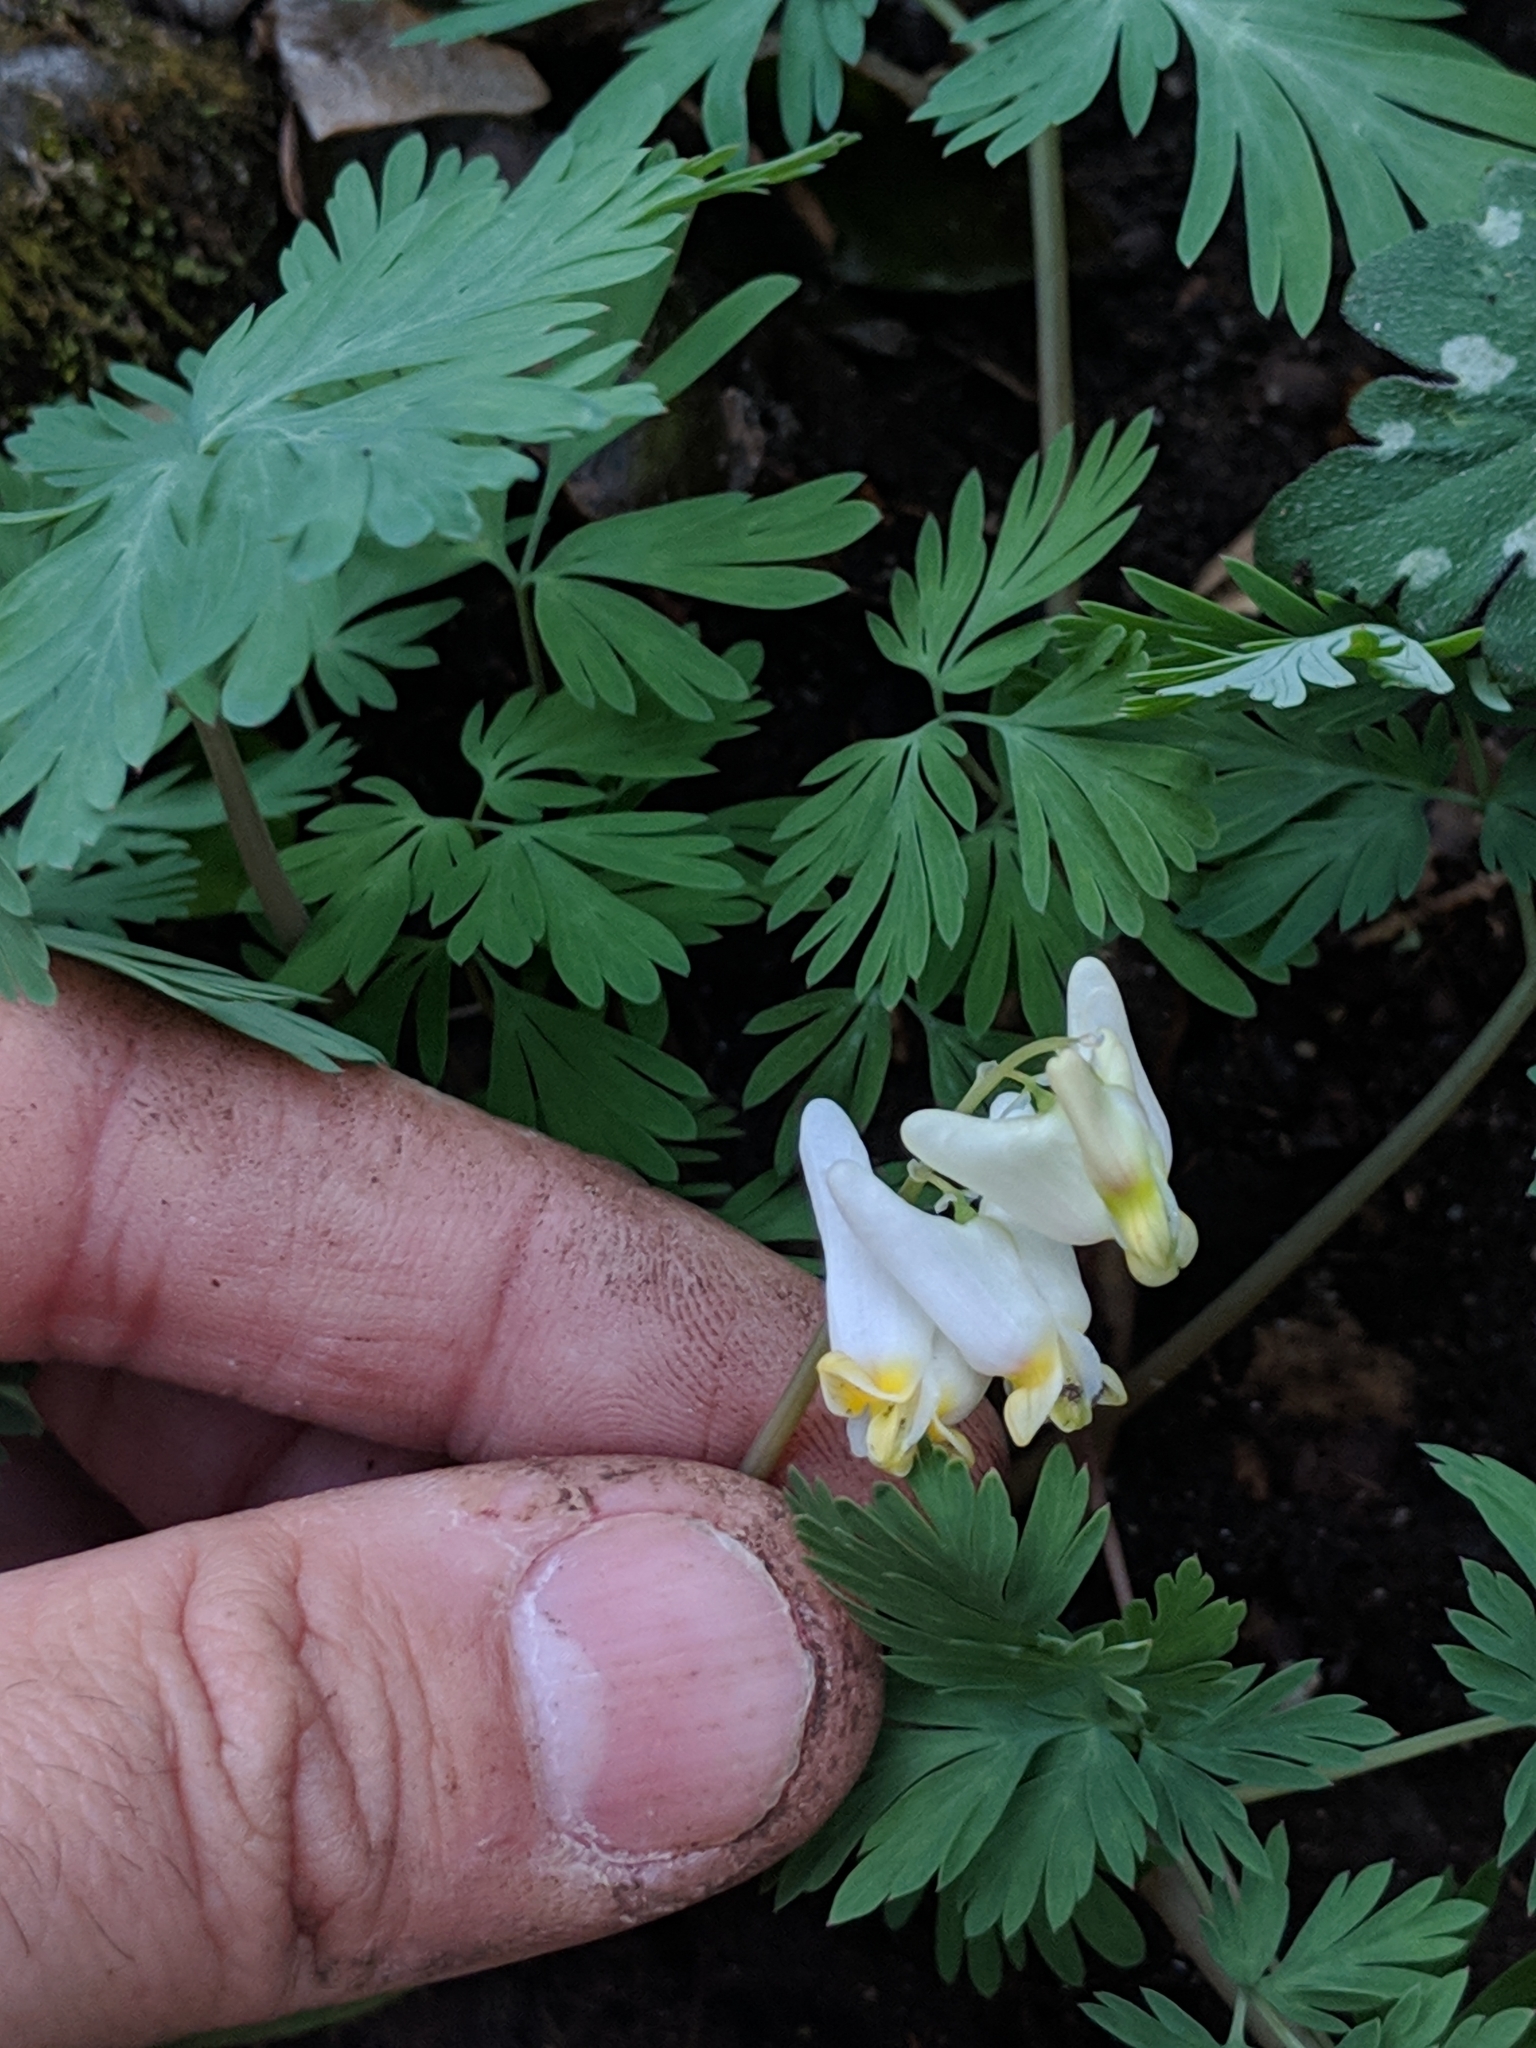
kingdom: Plantae
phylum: Tracheophyta
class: Magnoliopsida
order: Ranunculales
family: Papaveraceae
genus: Dicentra
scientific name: Dicentra cucullaria
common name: Dutchman's breeches
